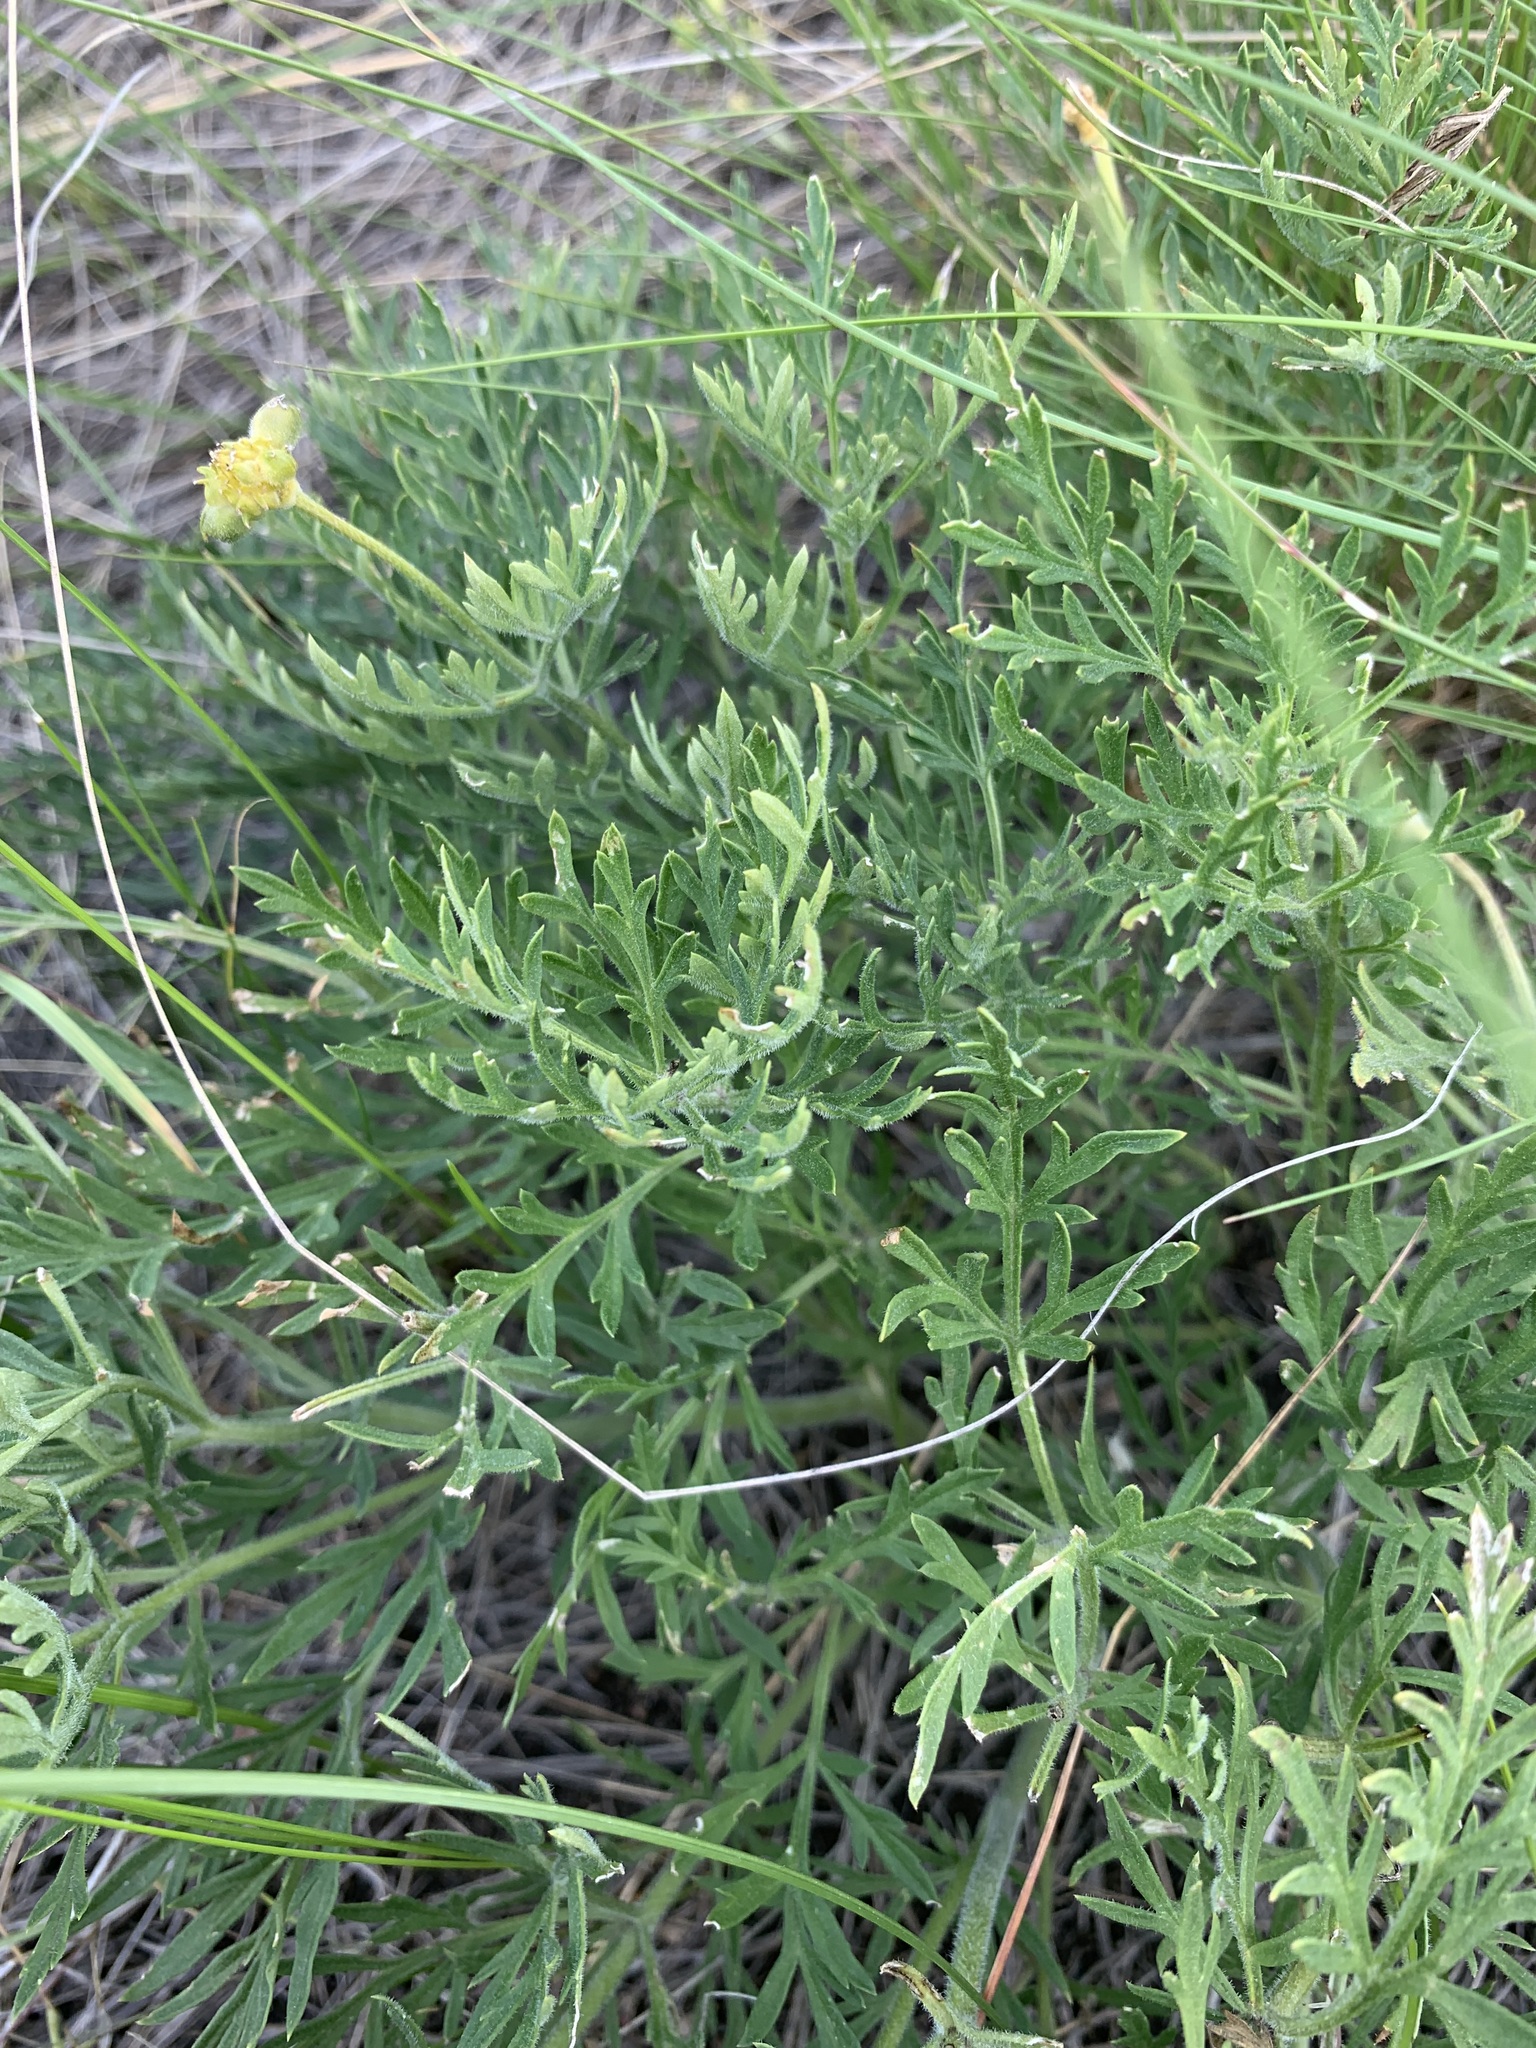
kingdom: Plantae
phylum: Tracheophyta
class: Magnoliopsida
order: Ranunculales
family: Ranunculaceae
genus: Adonis
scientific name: Adonis volgensis
